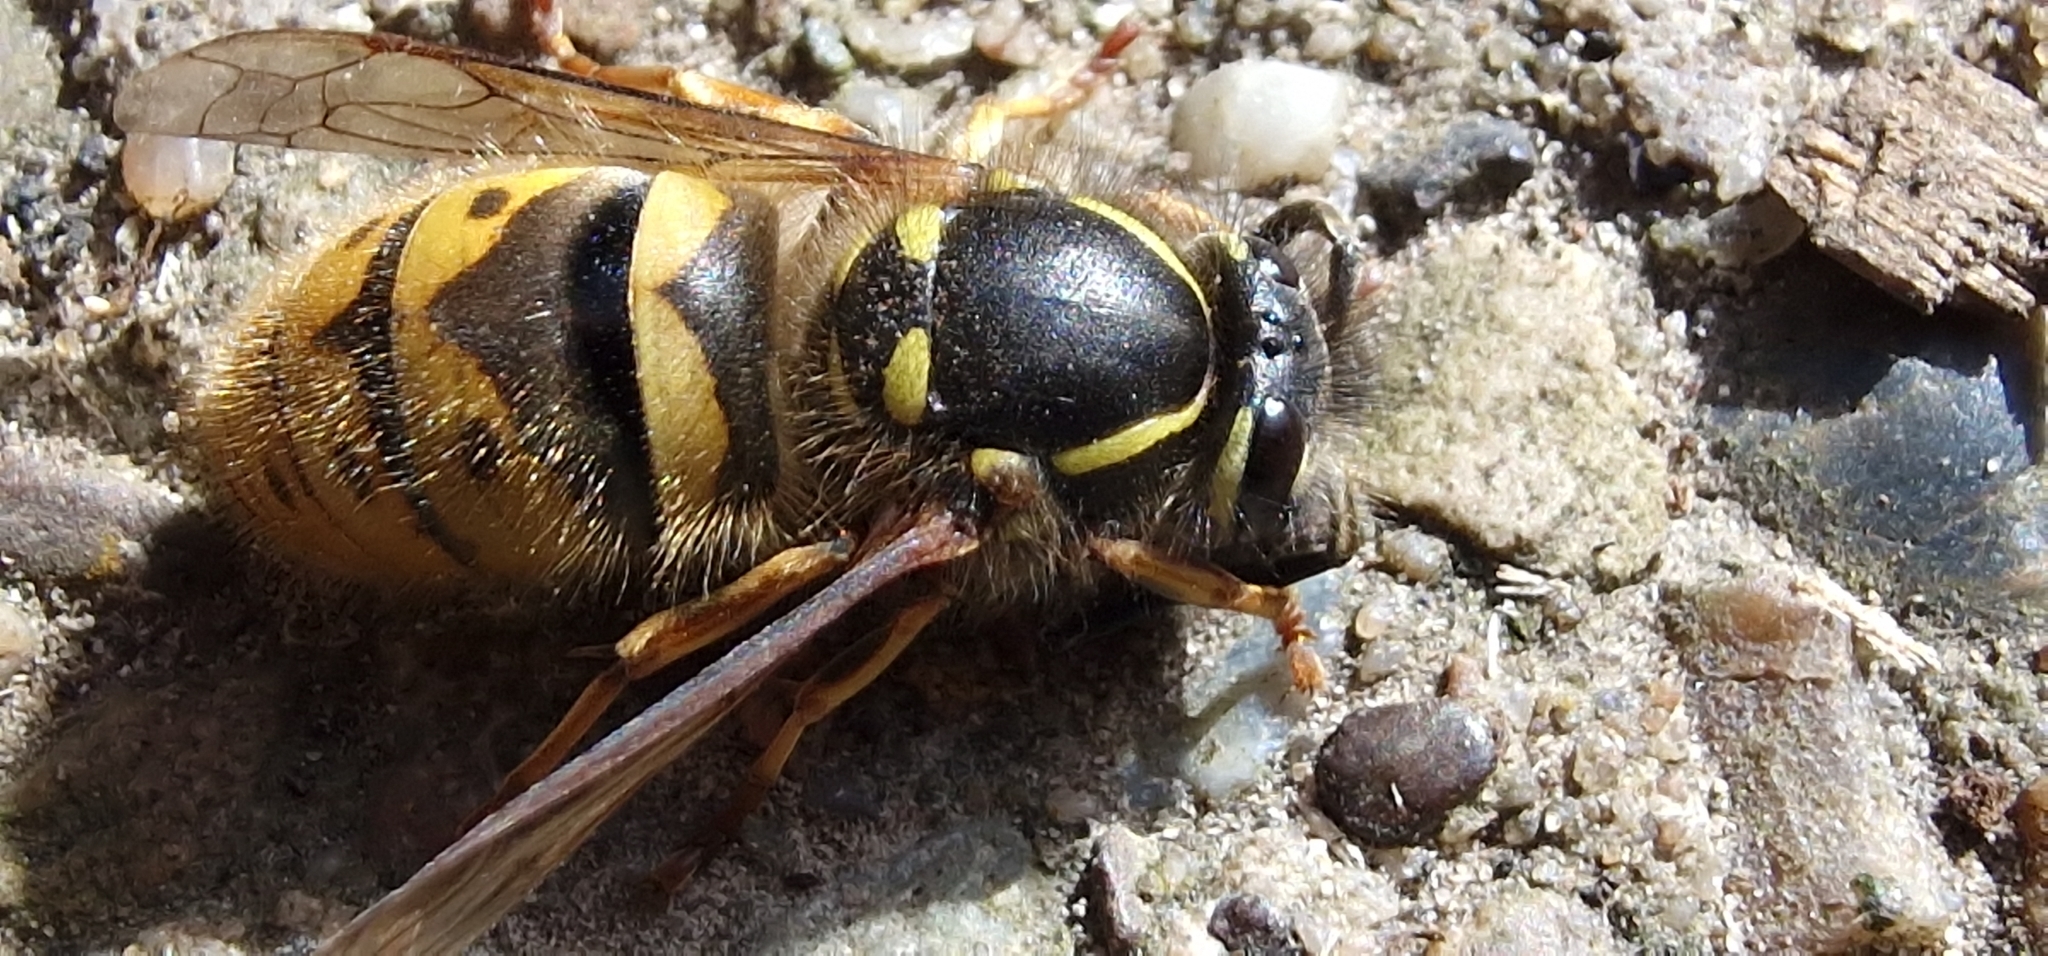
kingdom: Animalia
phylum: Arthropoda
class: Insecta
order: Hymenoptera
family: Vespidae
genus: Vespula
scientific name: Vespula vulgaris
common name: Common wasp
